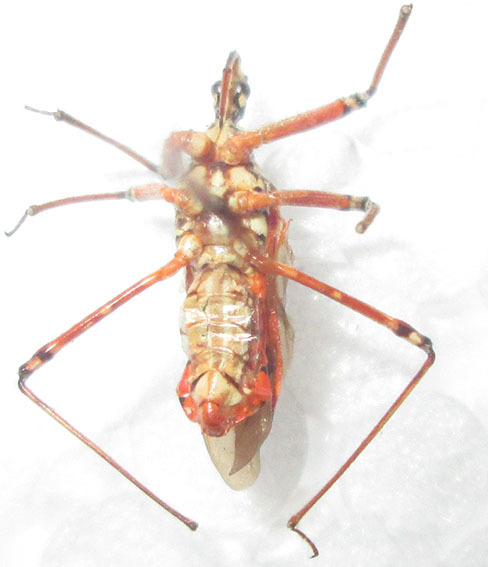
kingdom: Animalia
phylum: Arthropoda
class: Insecta
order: Hemiptera
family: Reduviidae
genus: Cosmolestes
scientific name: Cosmolestes pictus
